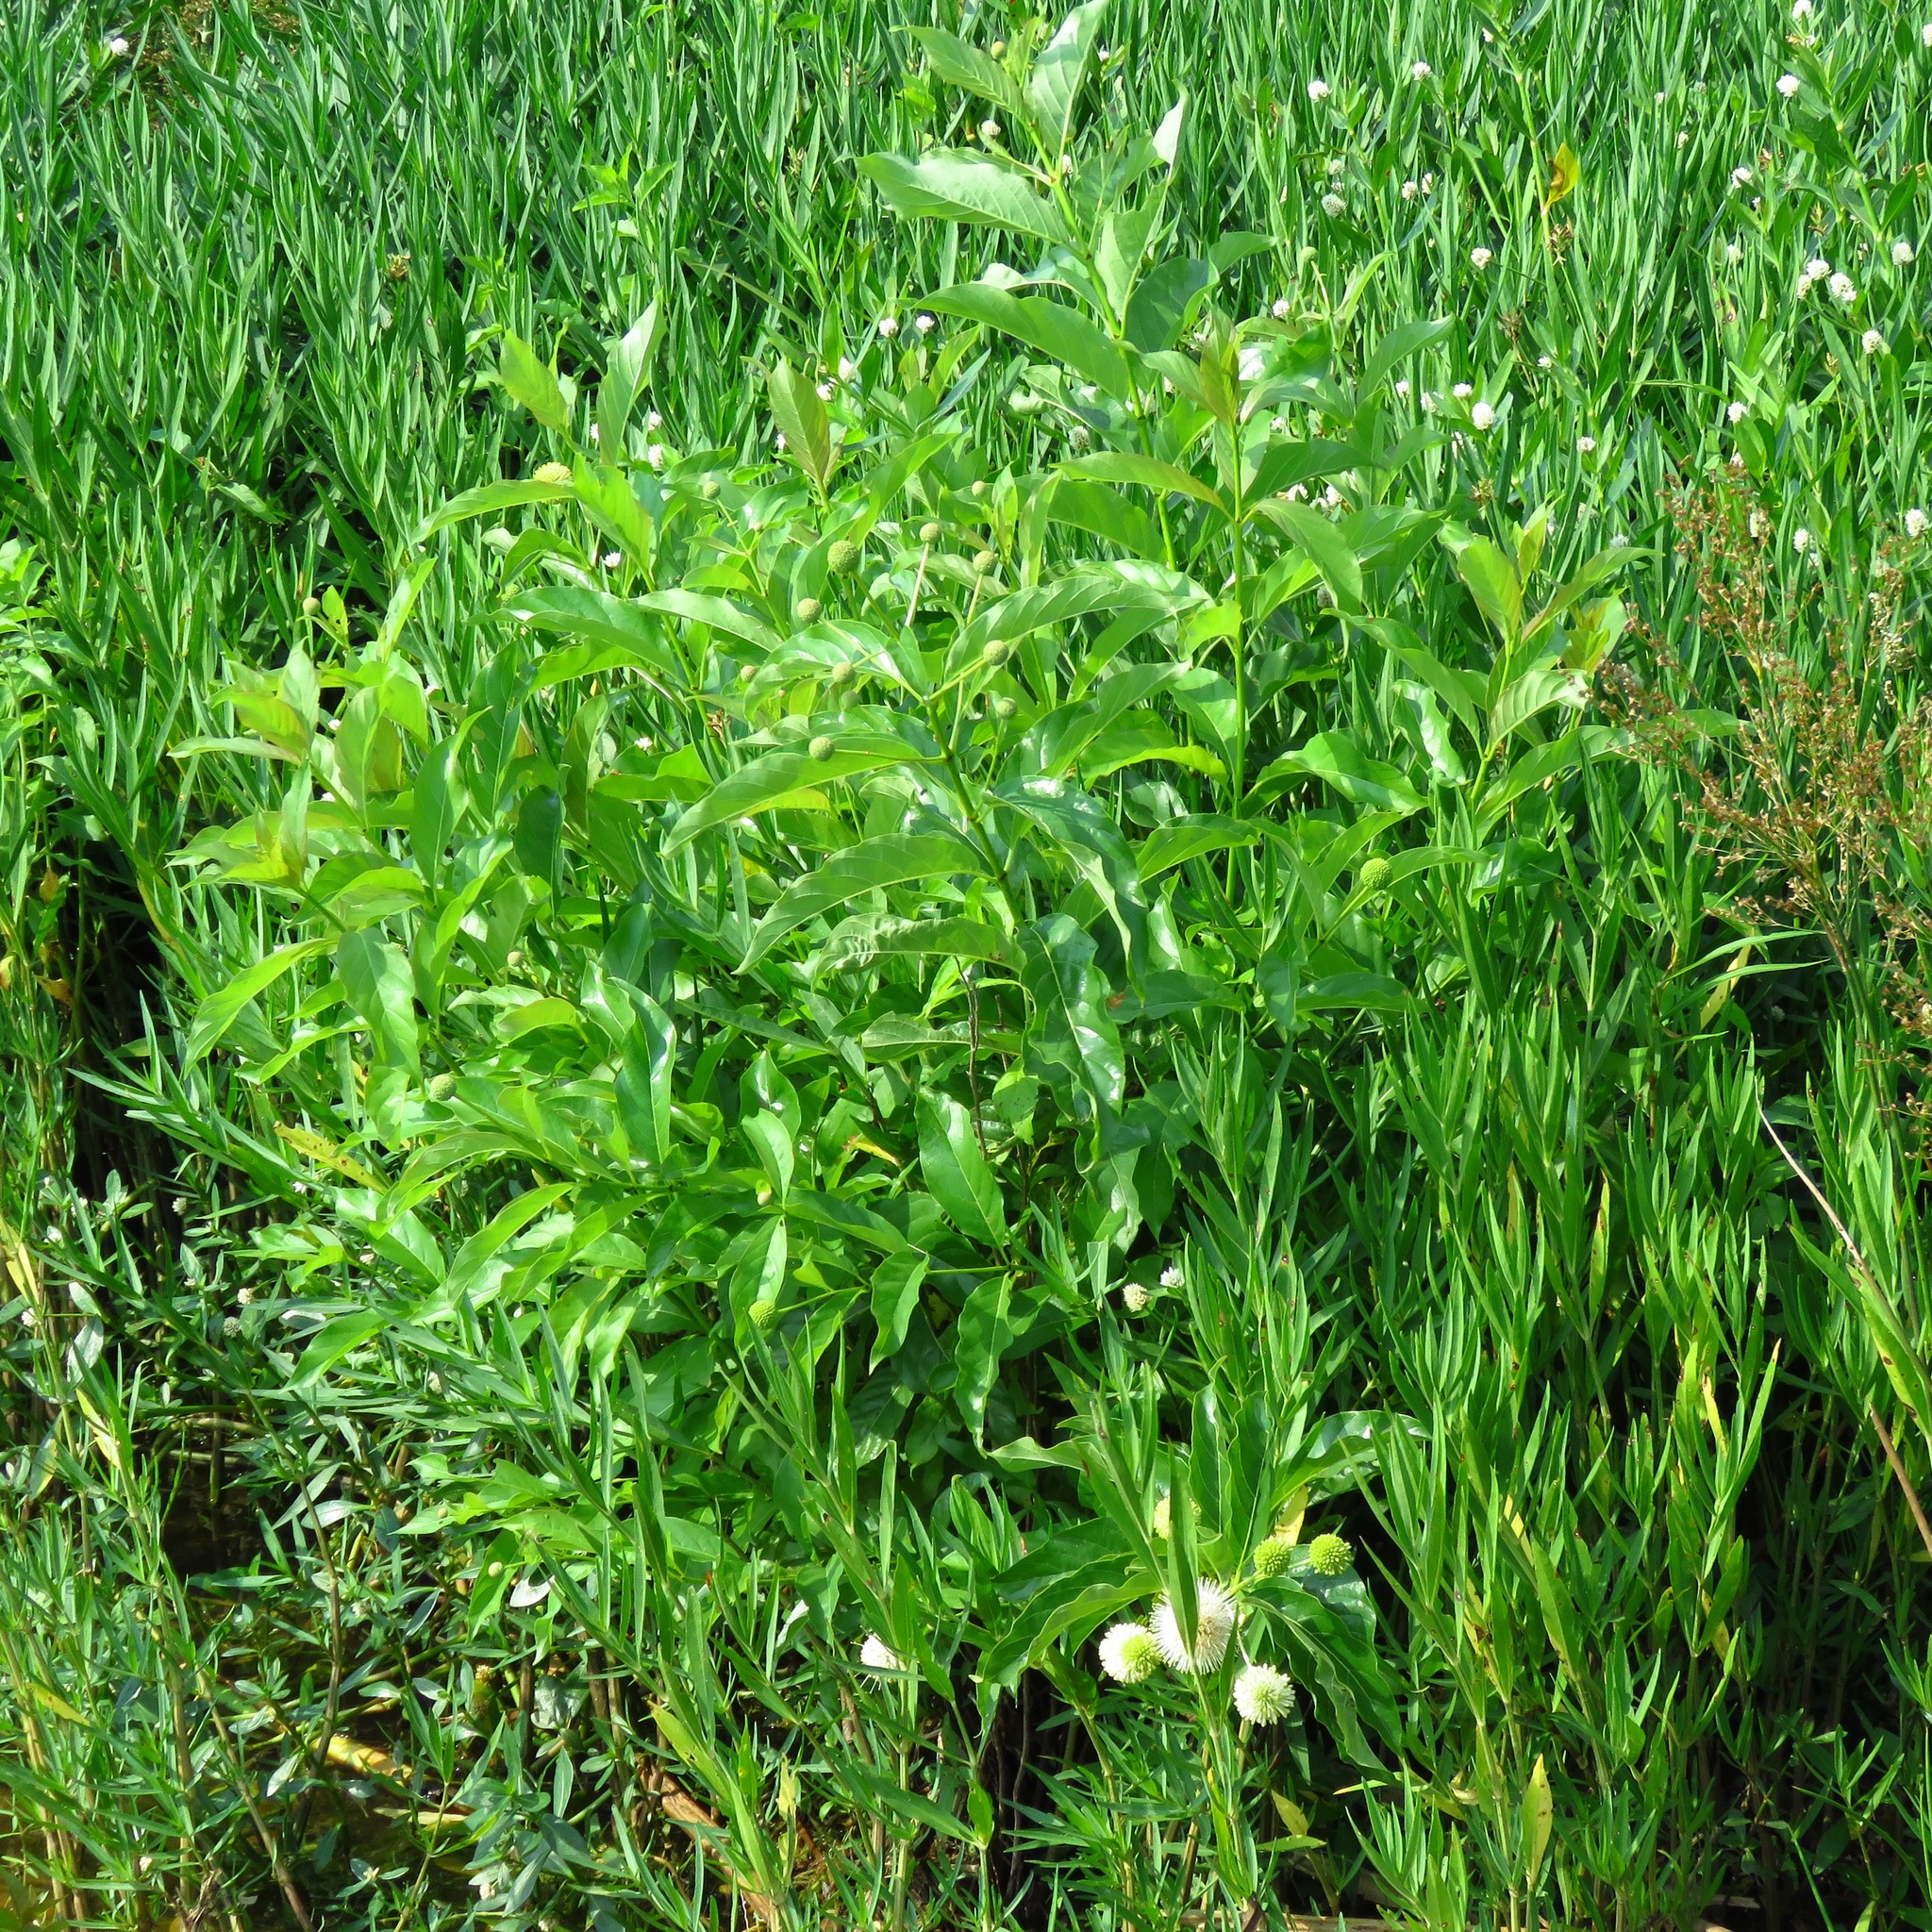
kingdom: Plantae
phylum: Tracheophyta
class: Magnoliopsida
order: Gentianales
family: Rubiaceae
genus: Cephalanthus
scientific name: Cephalanthus occidentalis
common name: Button-willow
